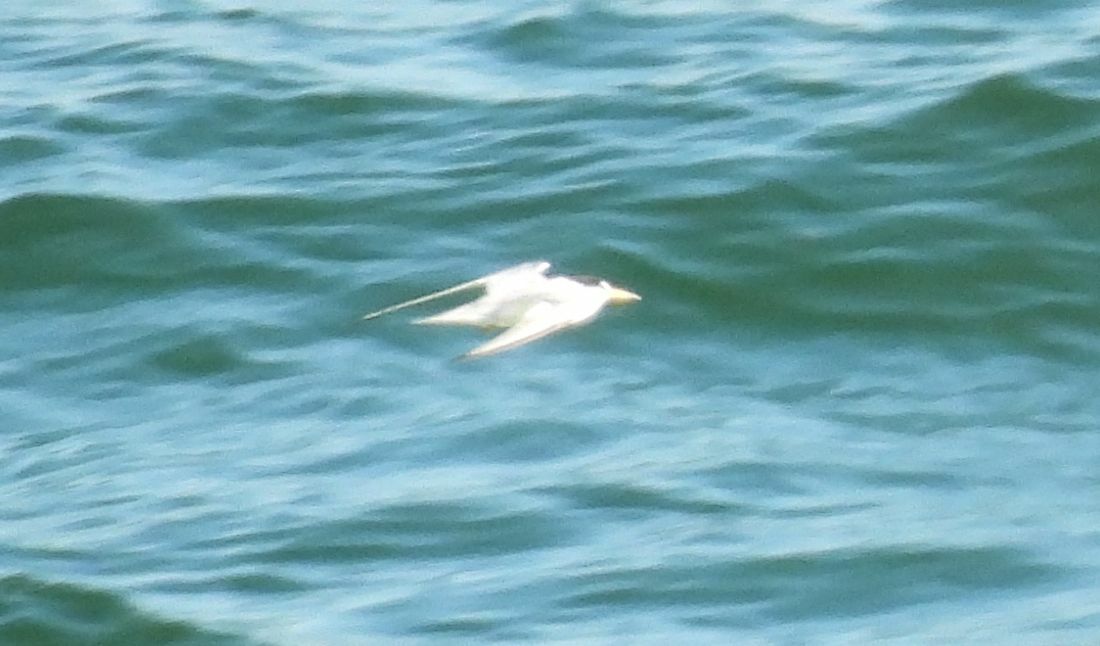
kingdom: Animalia
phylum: Chordata
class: Aves
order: Charadriiformes
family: Laridae
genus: Sternula
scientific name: Sternula antillarum
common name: Least tern
